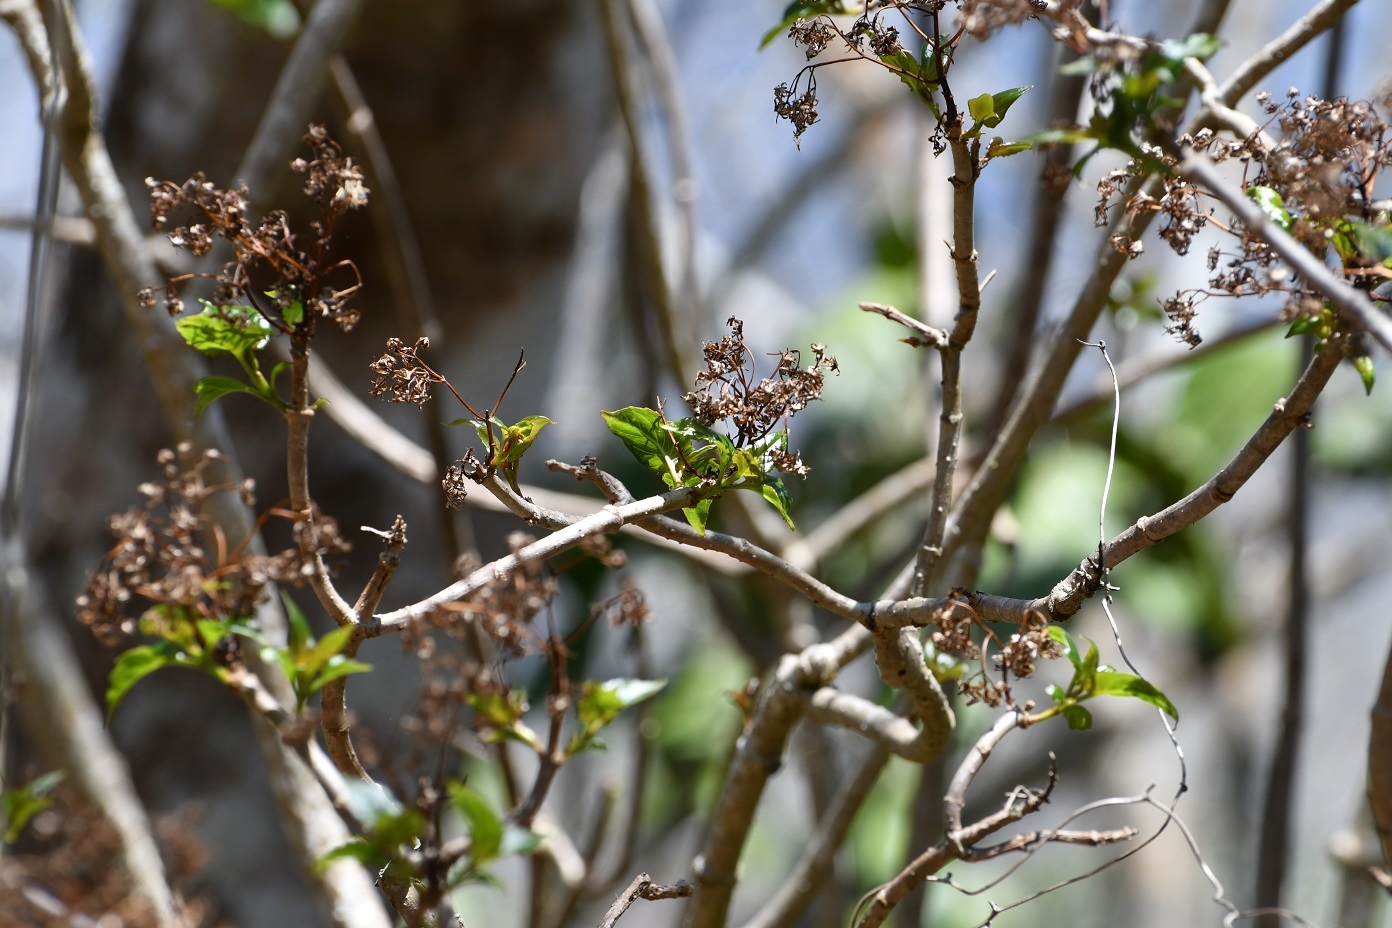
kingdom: Plantae
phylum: Tracheophyta
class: Magnoliopsida
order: Asterales
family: Asteraceae
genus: Pittocaulon
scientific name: Pittocaulon velatum
